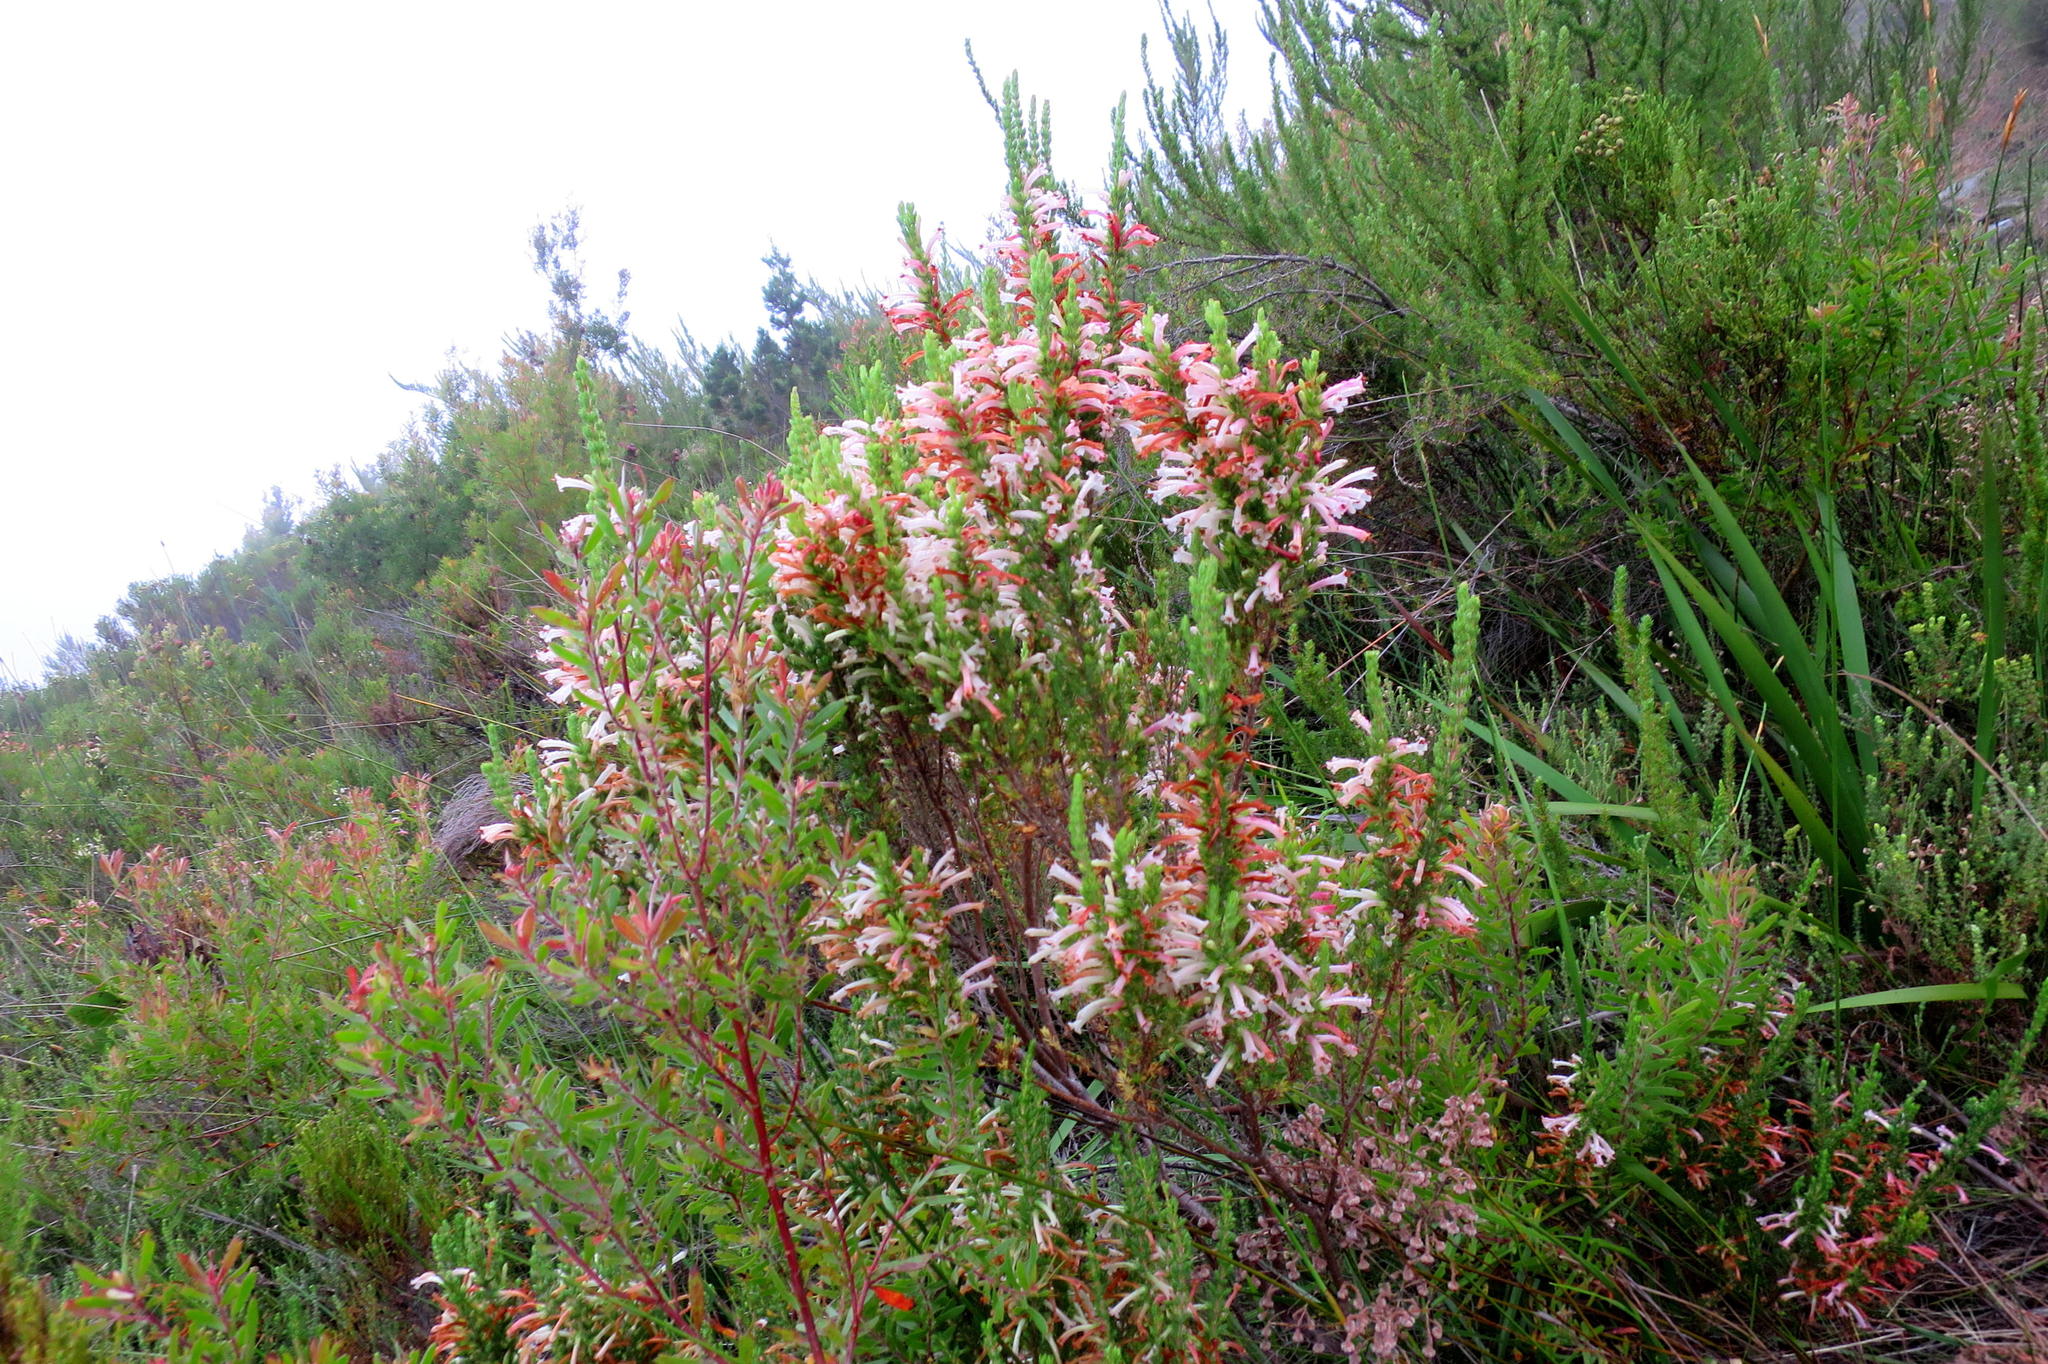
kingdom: Plantae
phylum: Tracheophyta
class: Magnoliopsida
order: Ericales
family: Ericaceae
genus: Erica
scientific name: Erica curviflora
